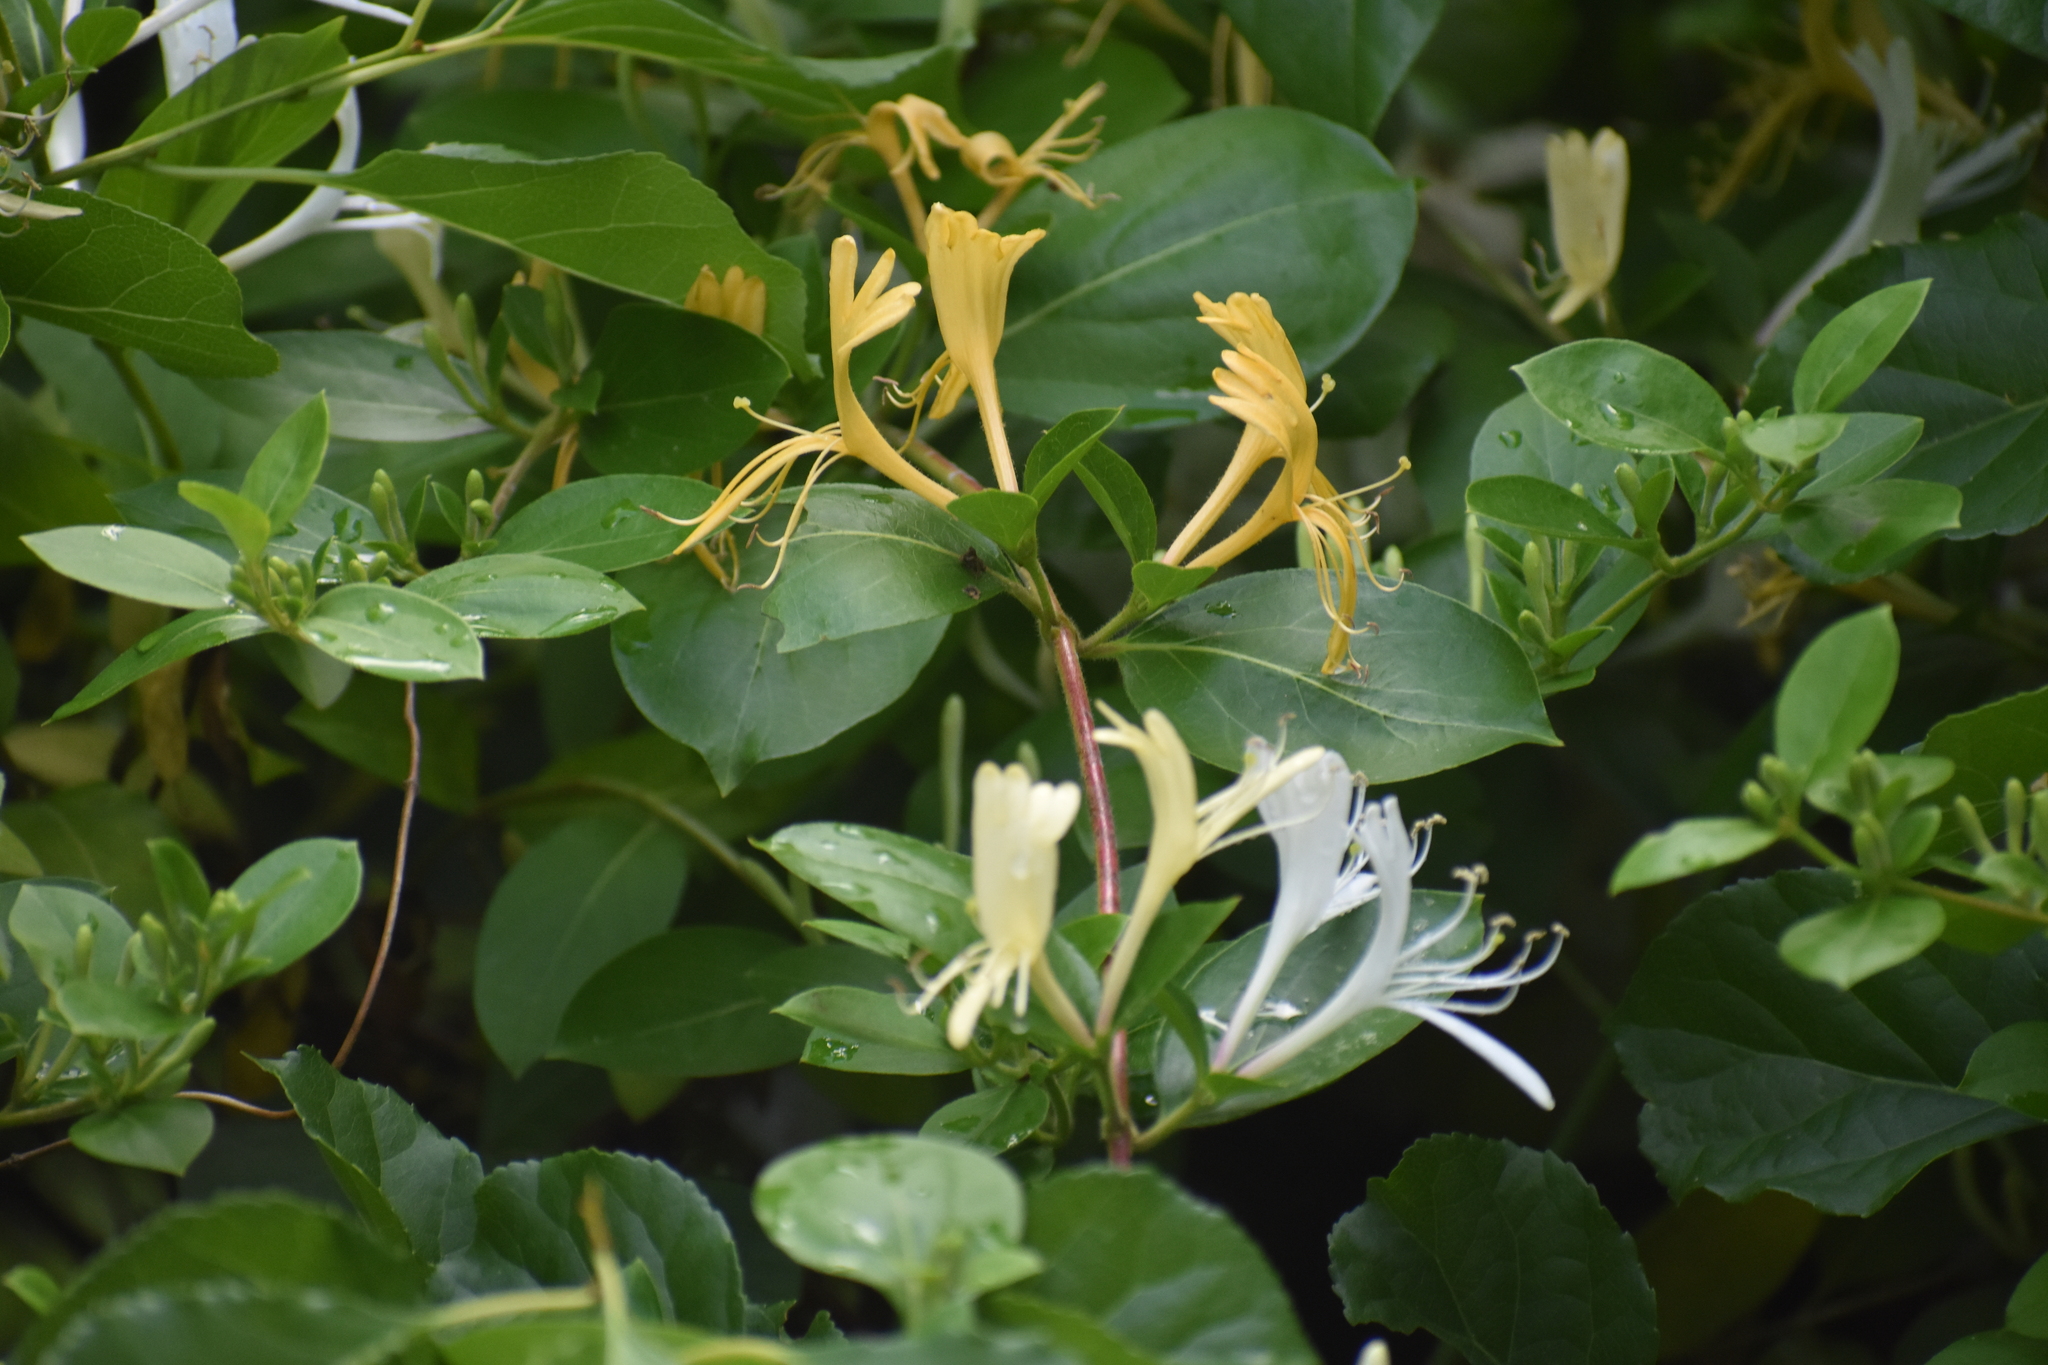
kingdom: Plantae
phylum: Tracheophyta
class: Magnoliopsida
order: Dipsacales
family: Caprifoliaceae
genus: Lonicera
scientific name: Lonicera japonica
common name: Japanese honeysuckle
